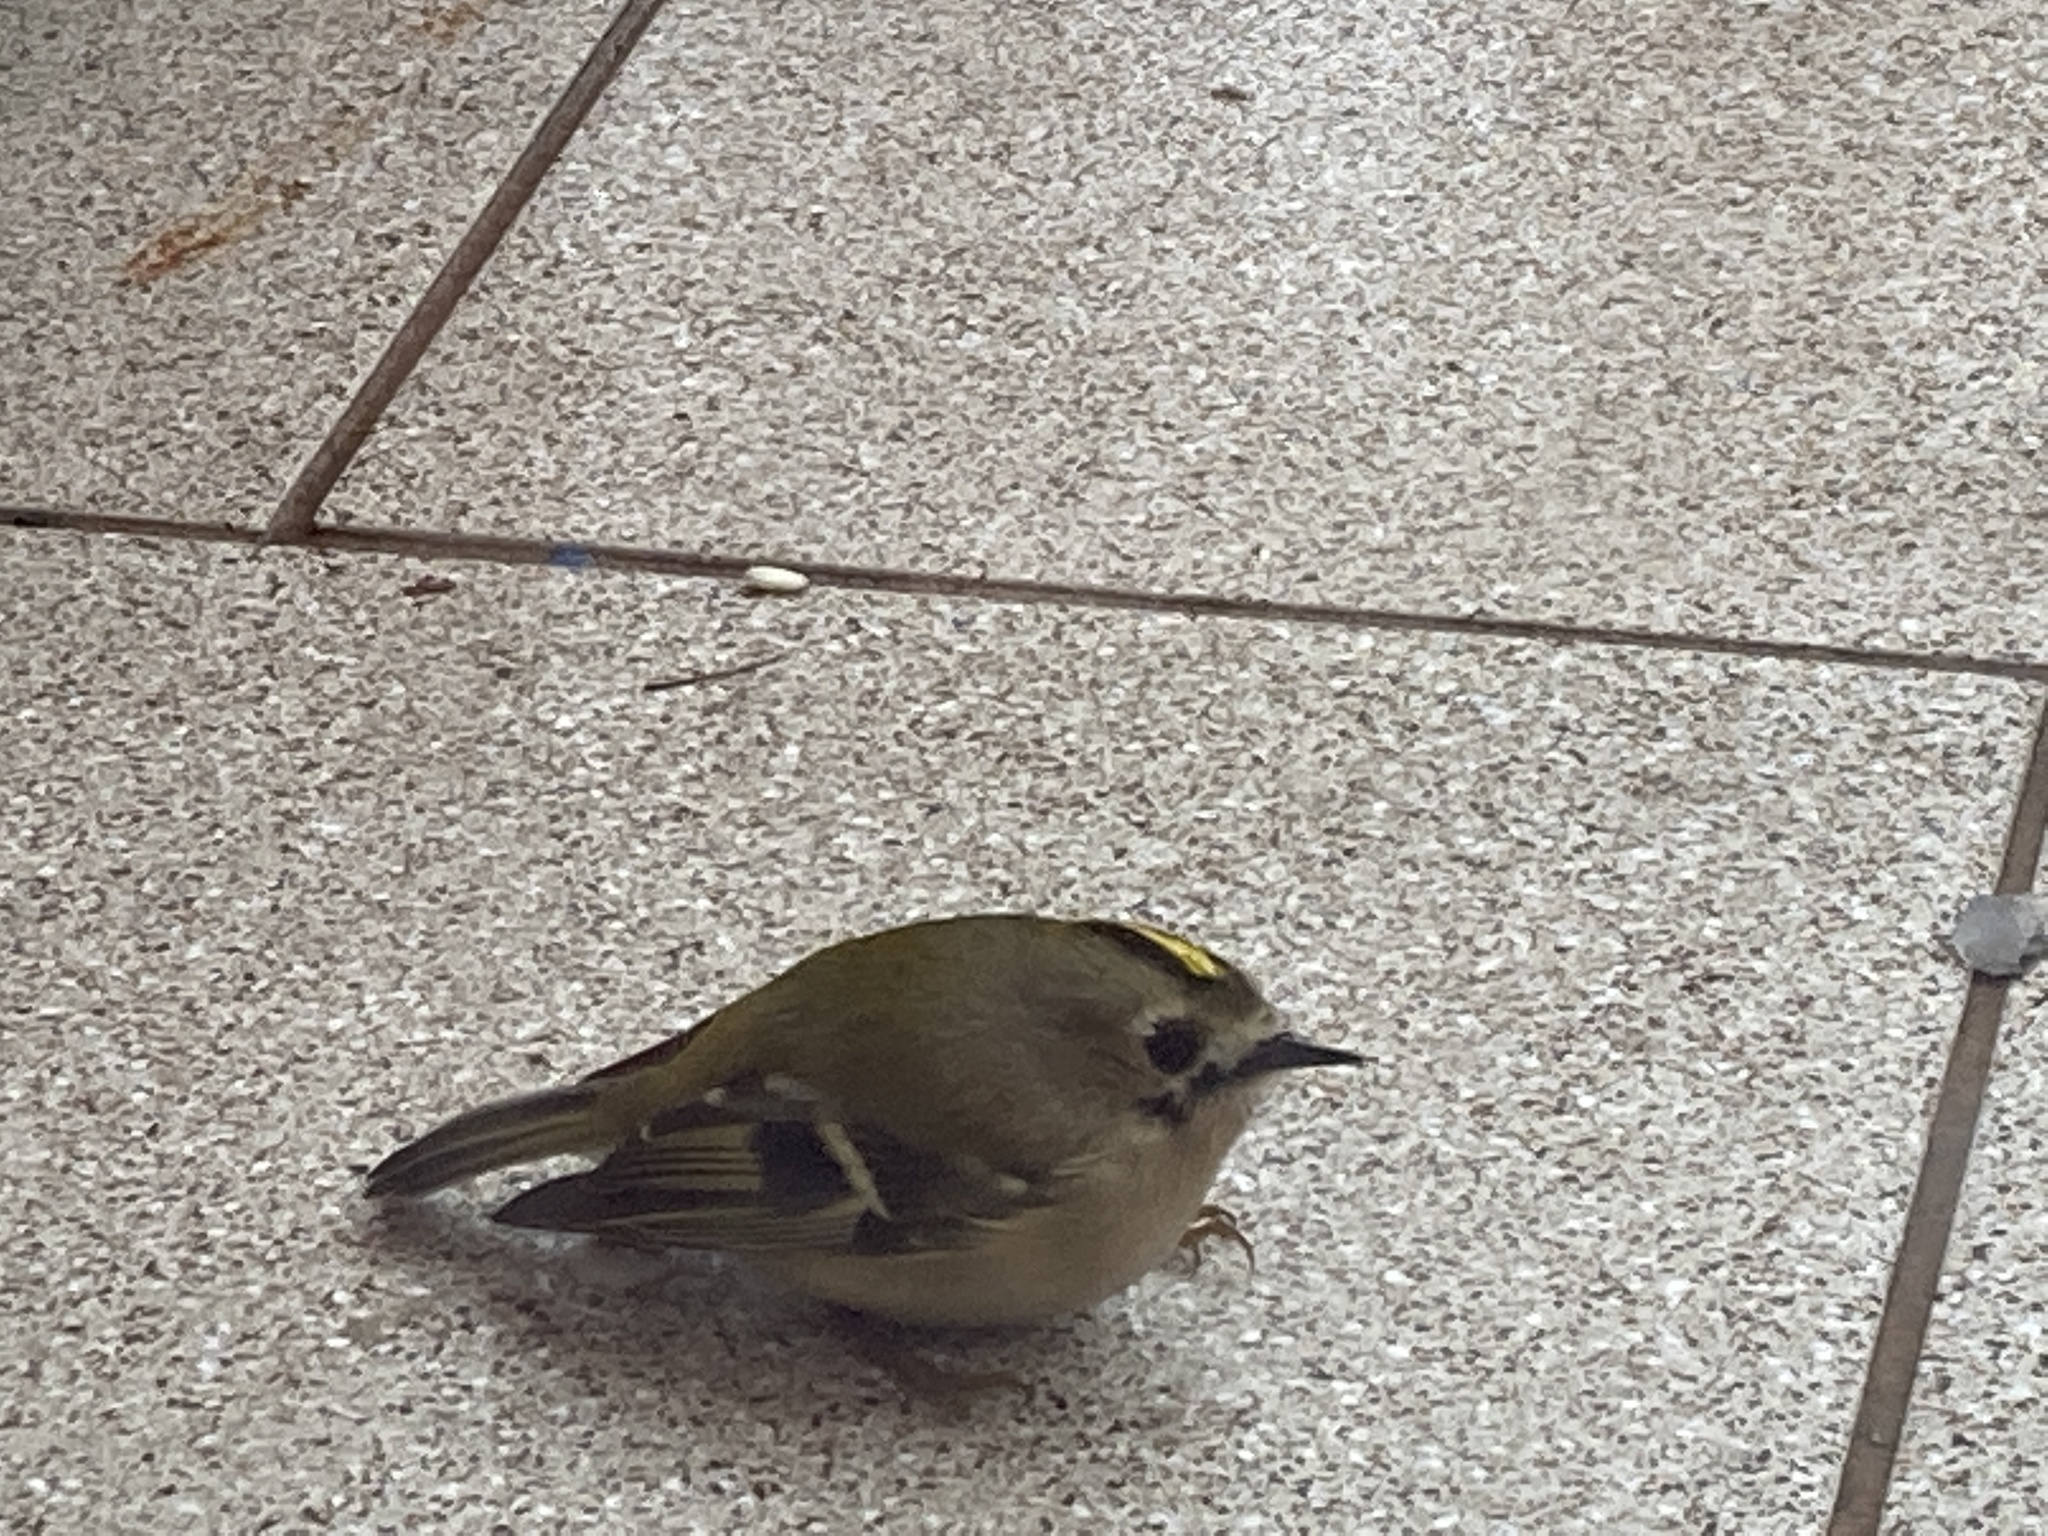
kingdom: Animalia
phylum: Chordata
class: Aves
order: Passeriformes
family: Regulidae
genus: Regulus
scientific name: Regulus regulus
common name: Goldcrest
